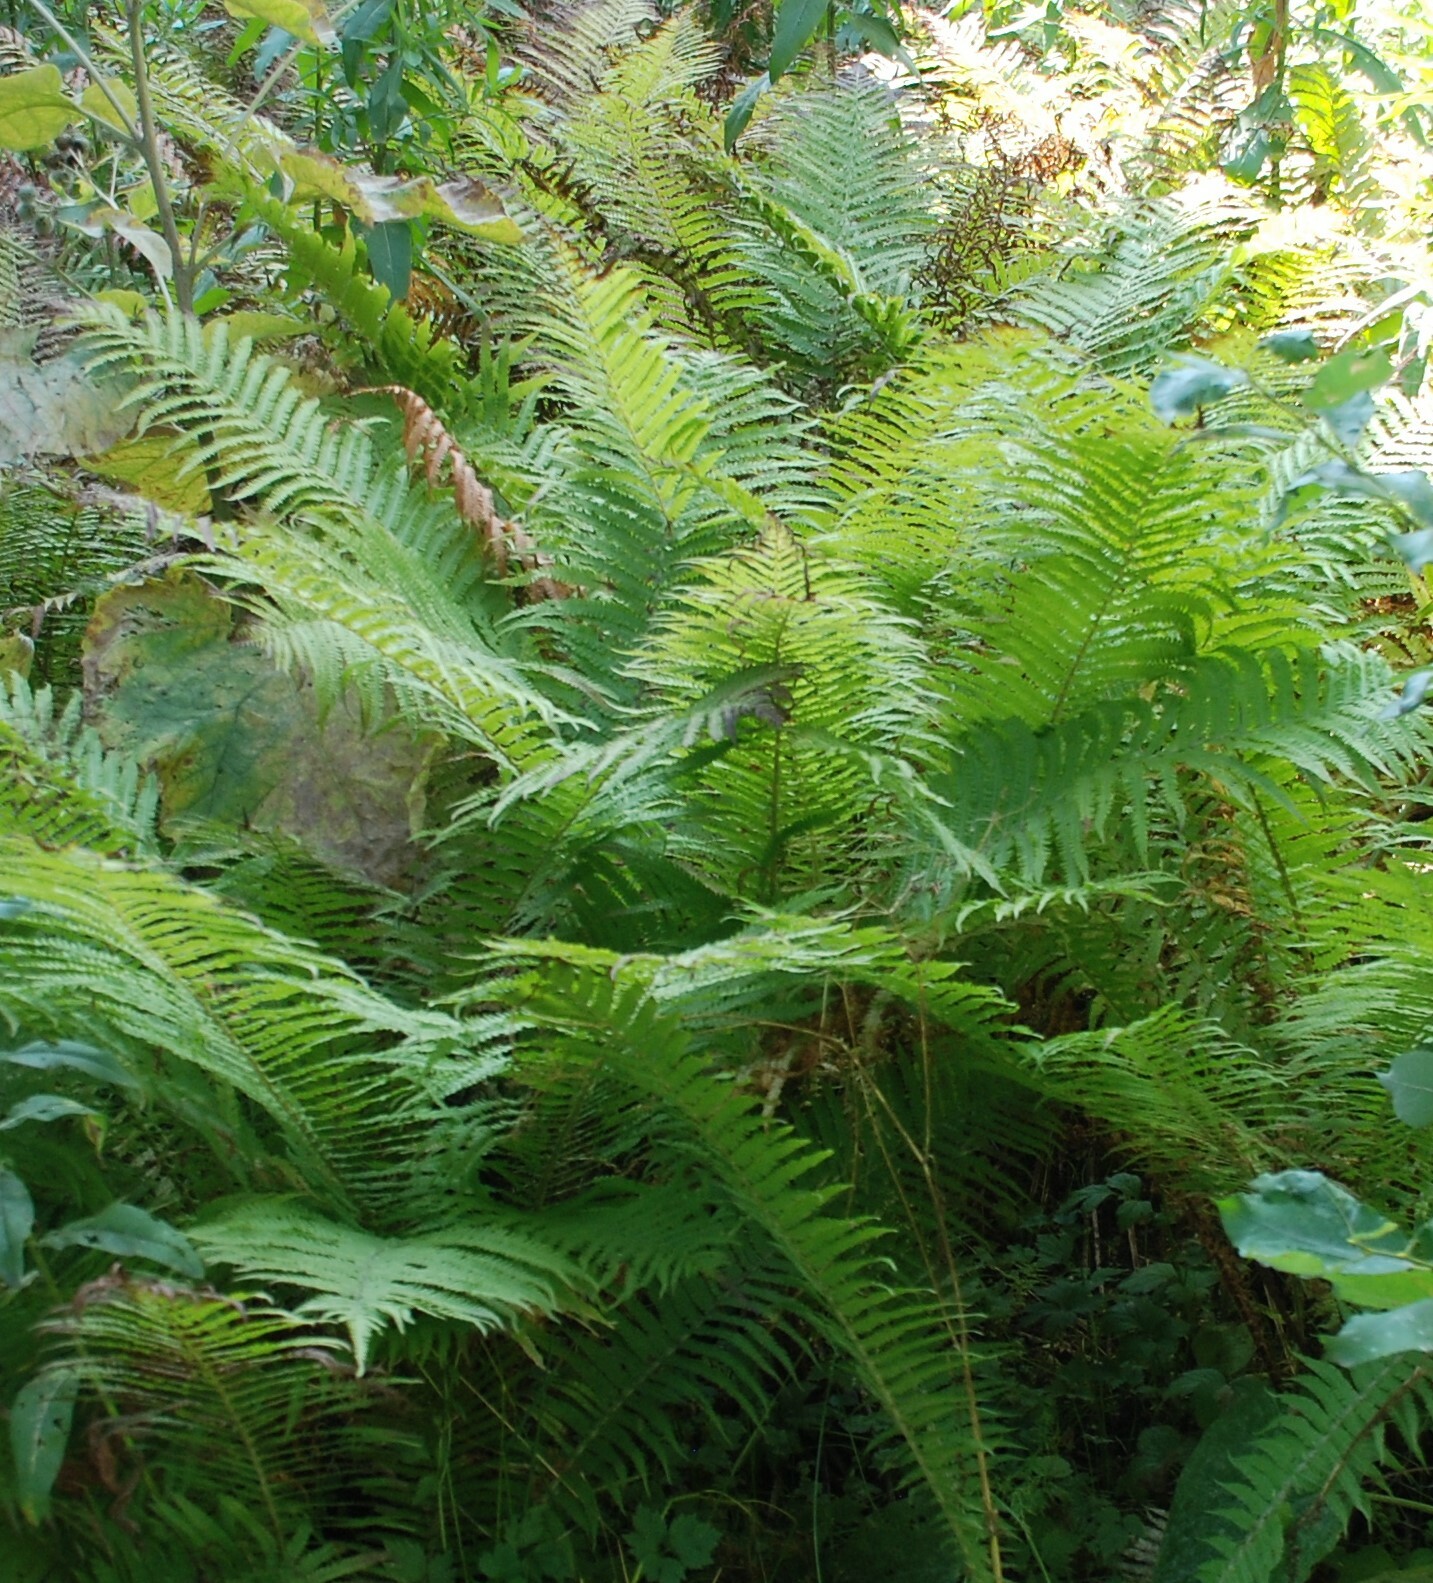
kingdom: Plantae
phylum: Tracheophyta
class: Polypodiopsida
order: Polypodiales
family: Onocleaceae
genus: Matteuccia
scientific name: Matteuccia struthiopteris
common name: Ostrich fern
